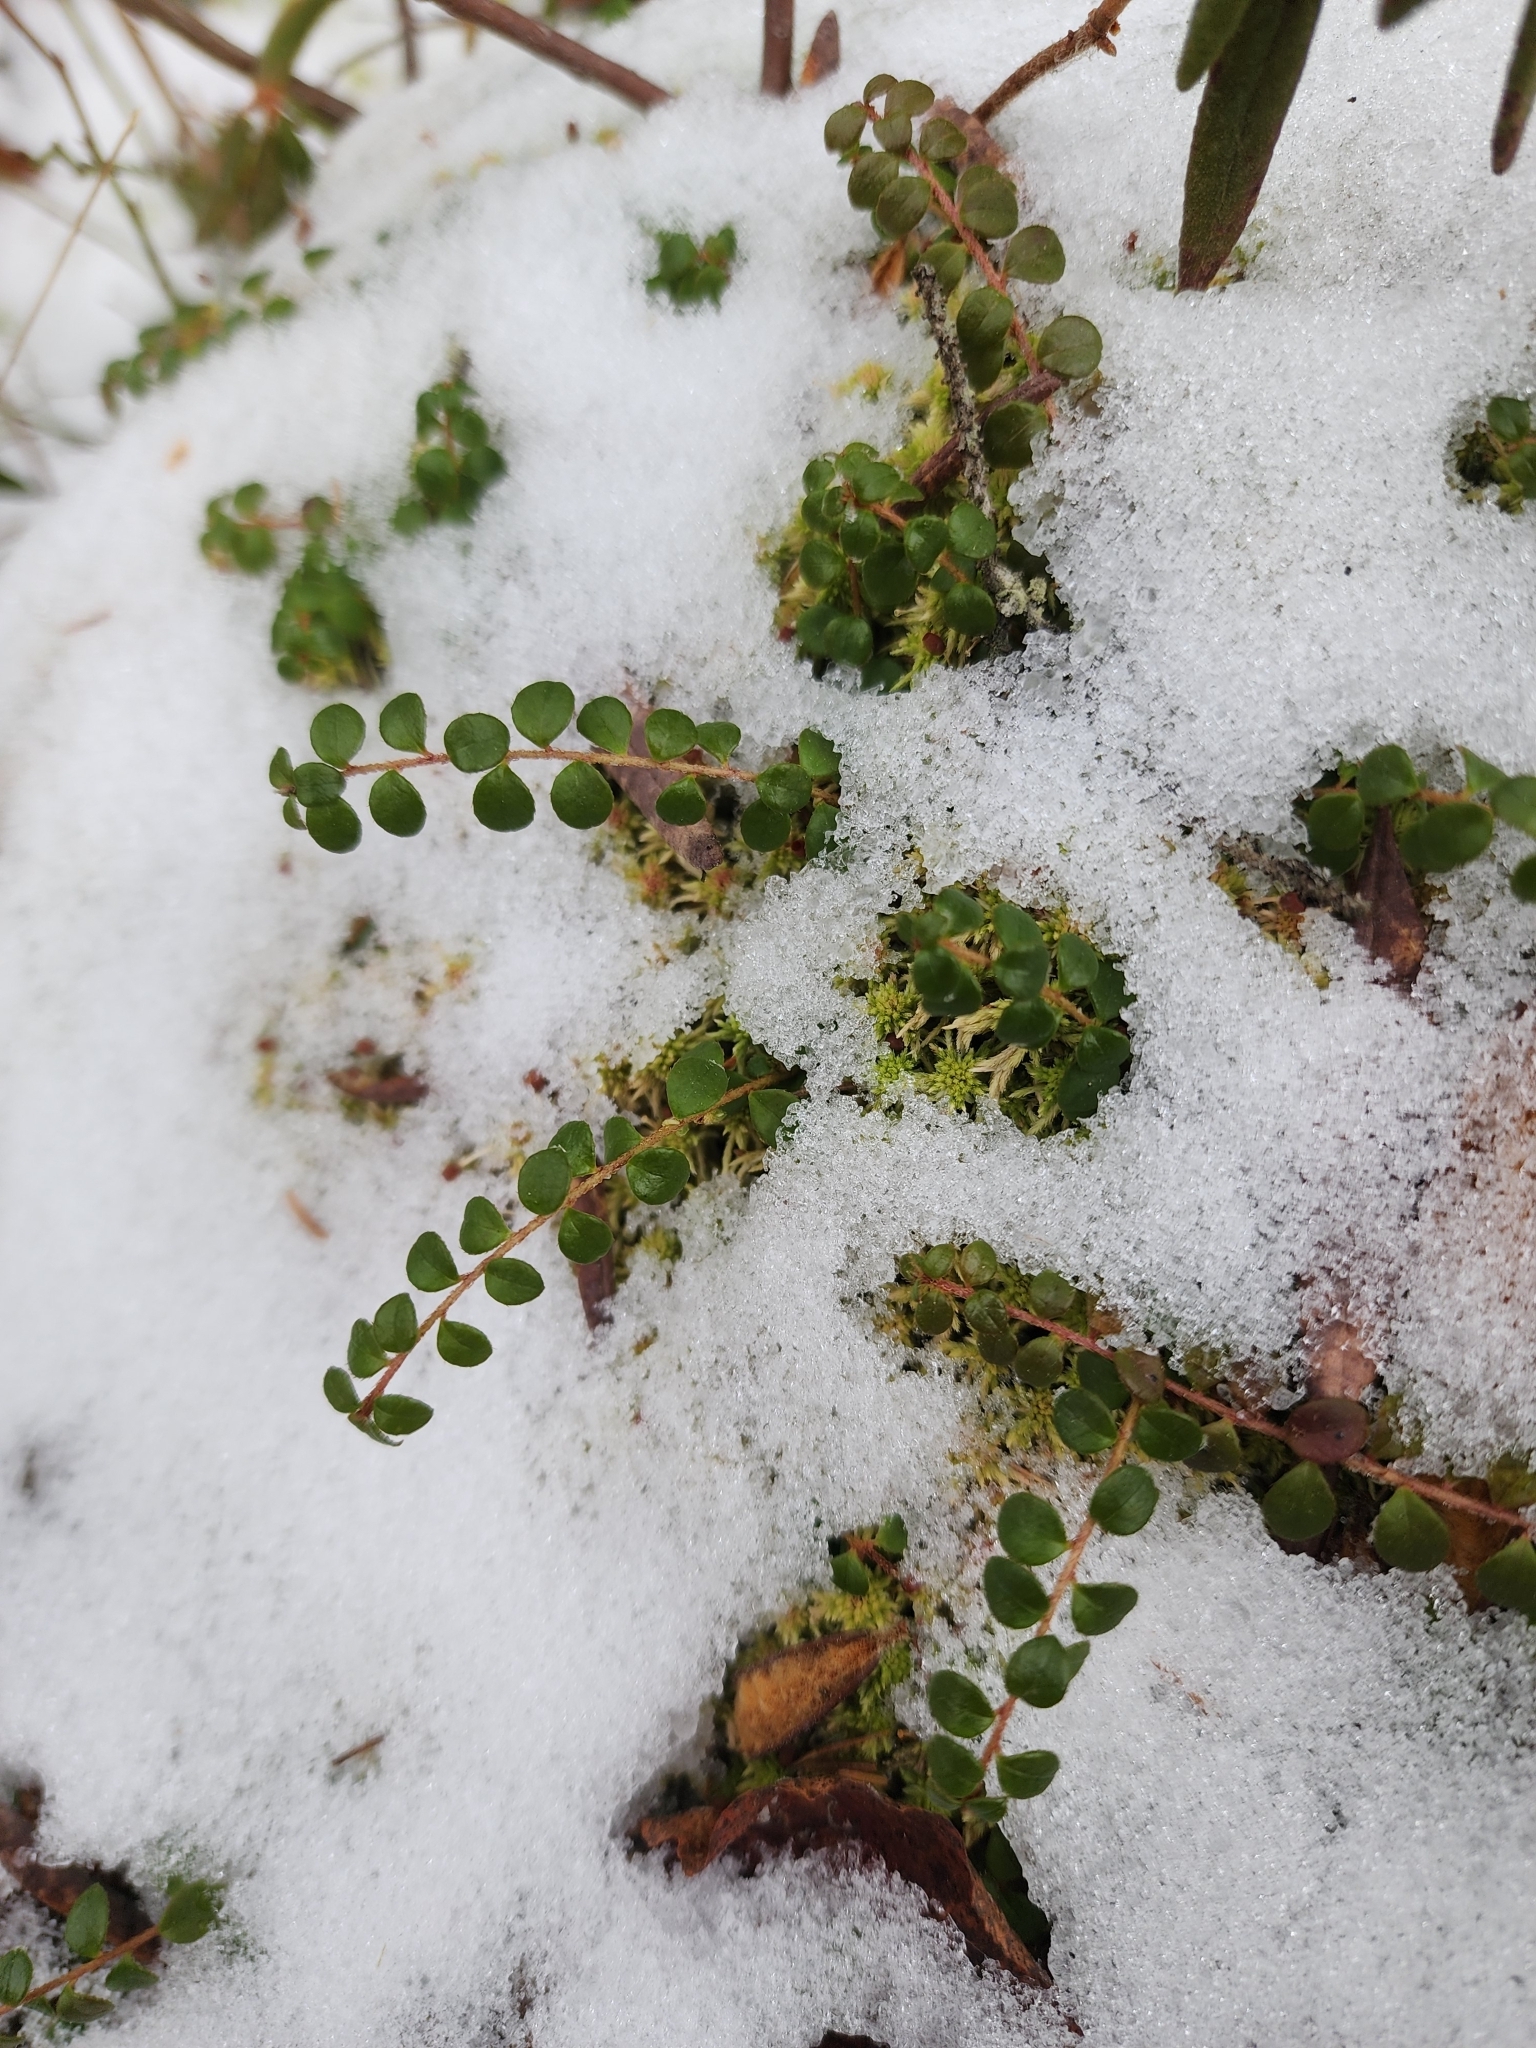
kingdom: Plantae
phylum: Tracheophyta
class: Magnoliopsida
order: Ericales
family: Ericaceae
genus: Gaultheria
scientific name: Gaultheria hispidula
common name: Cancer wintergreen
